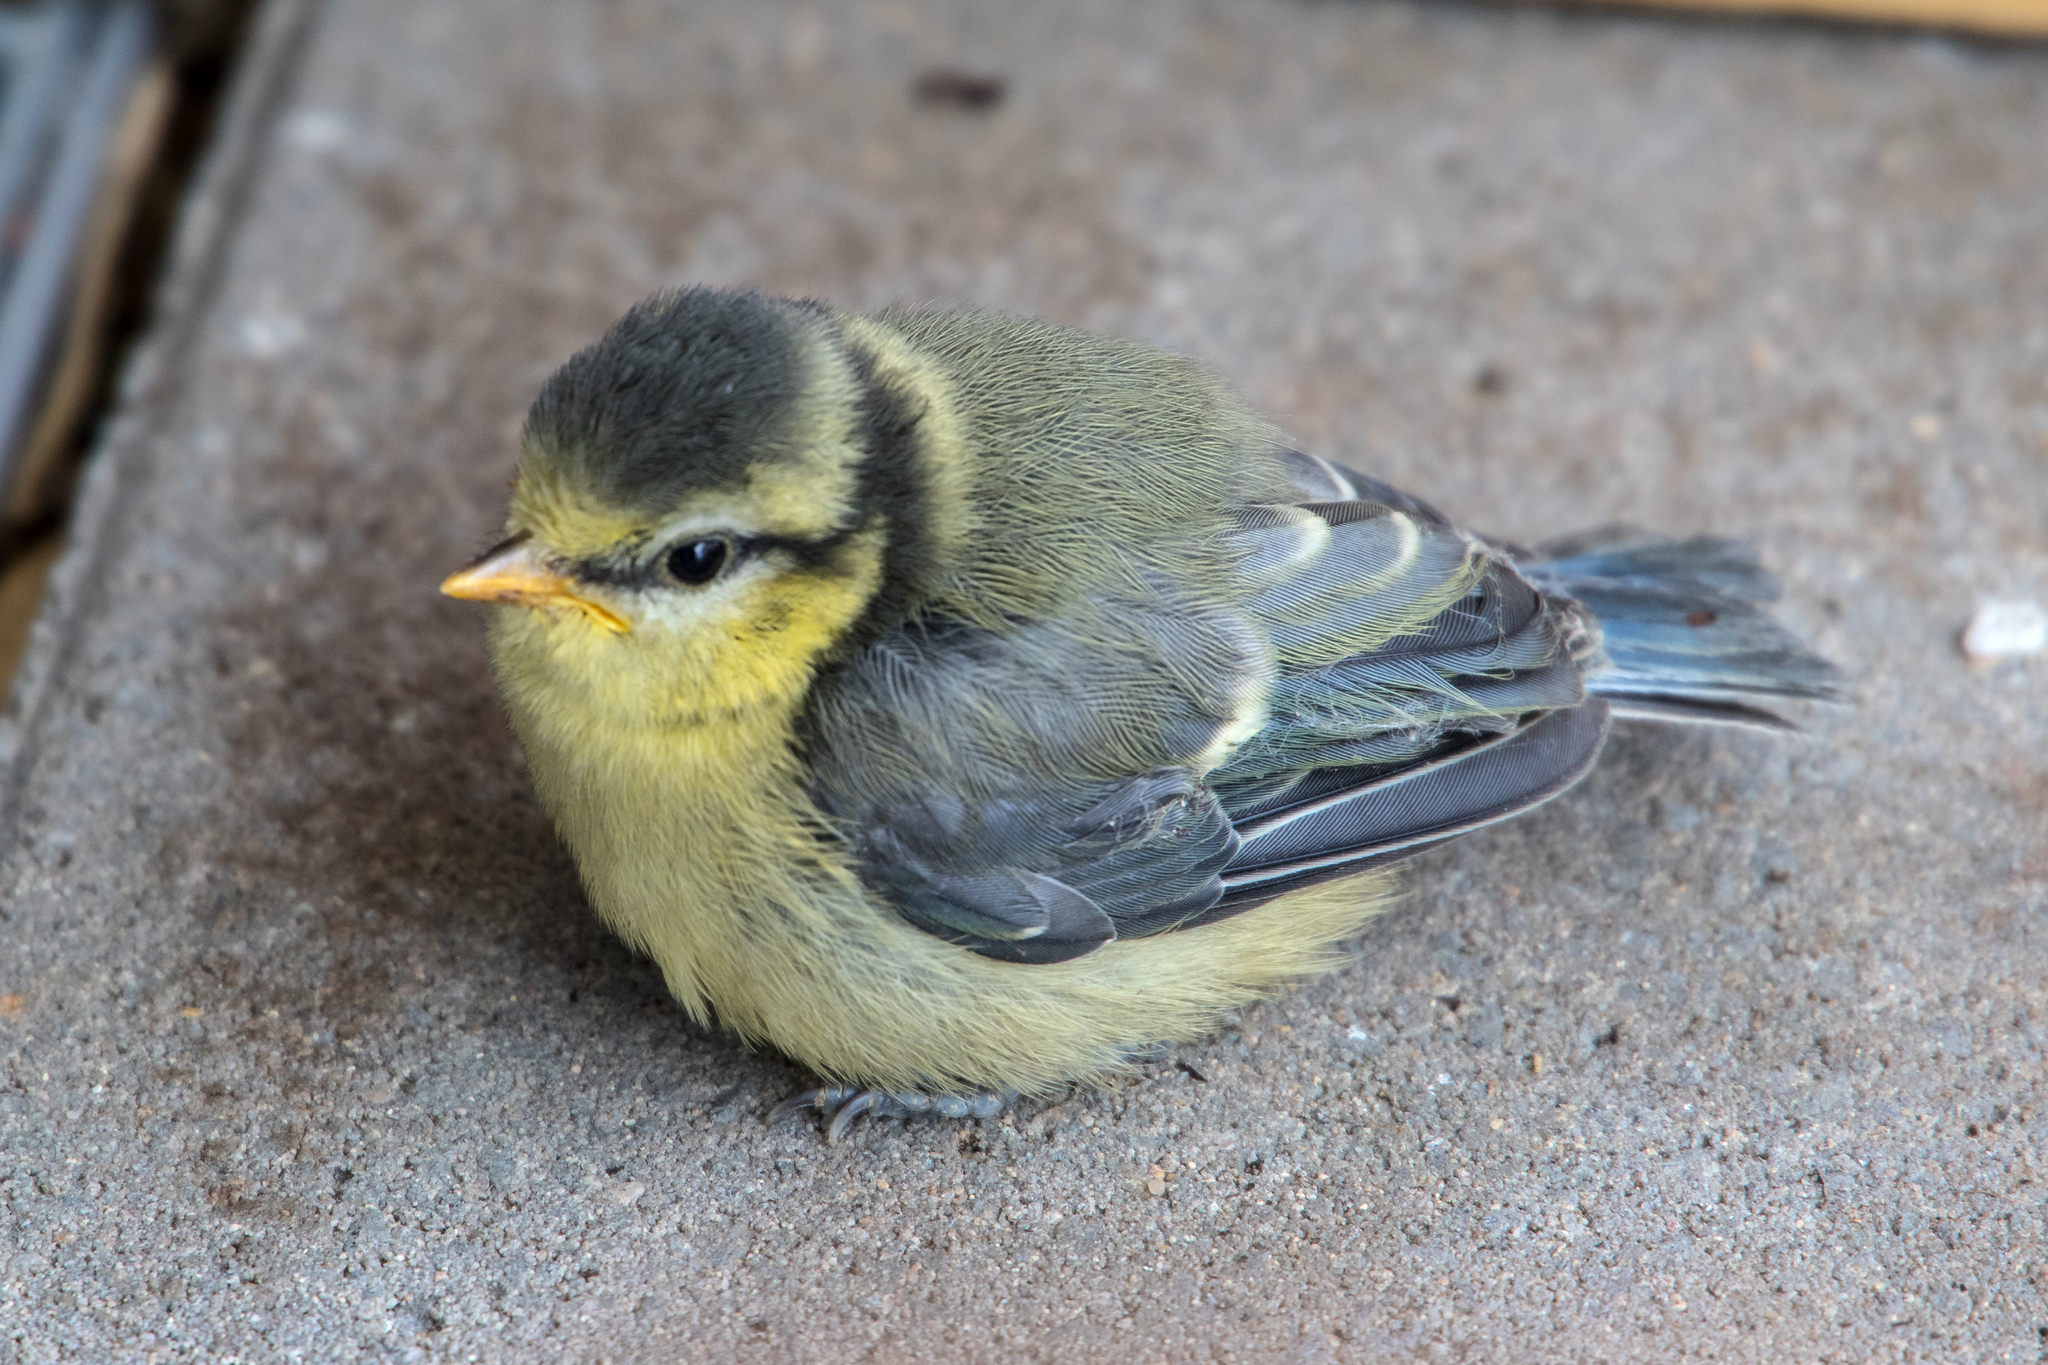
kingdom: Animalia
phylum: Chordata
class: Aves
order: Passeriformes
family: Paridae
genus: Cyanistes
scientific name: Cyanistes caeruleus
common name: Eurasian blue tit
